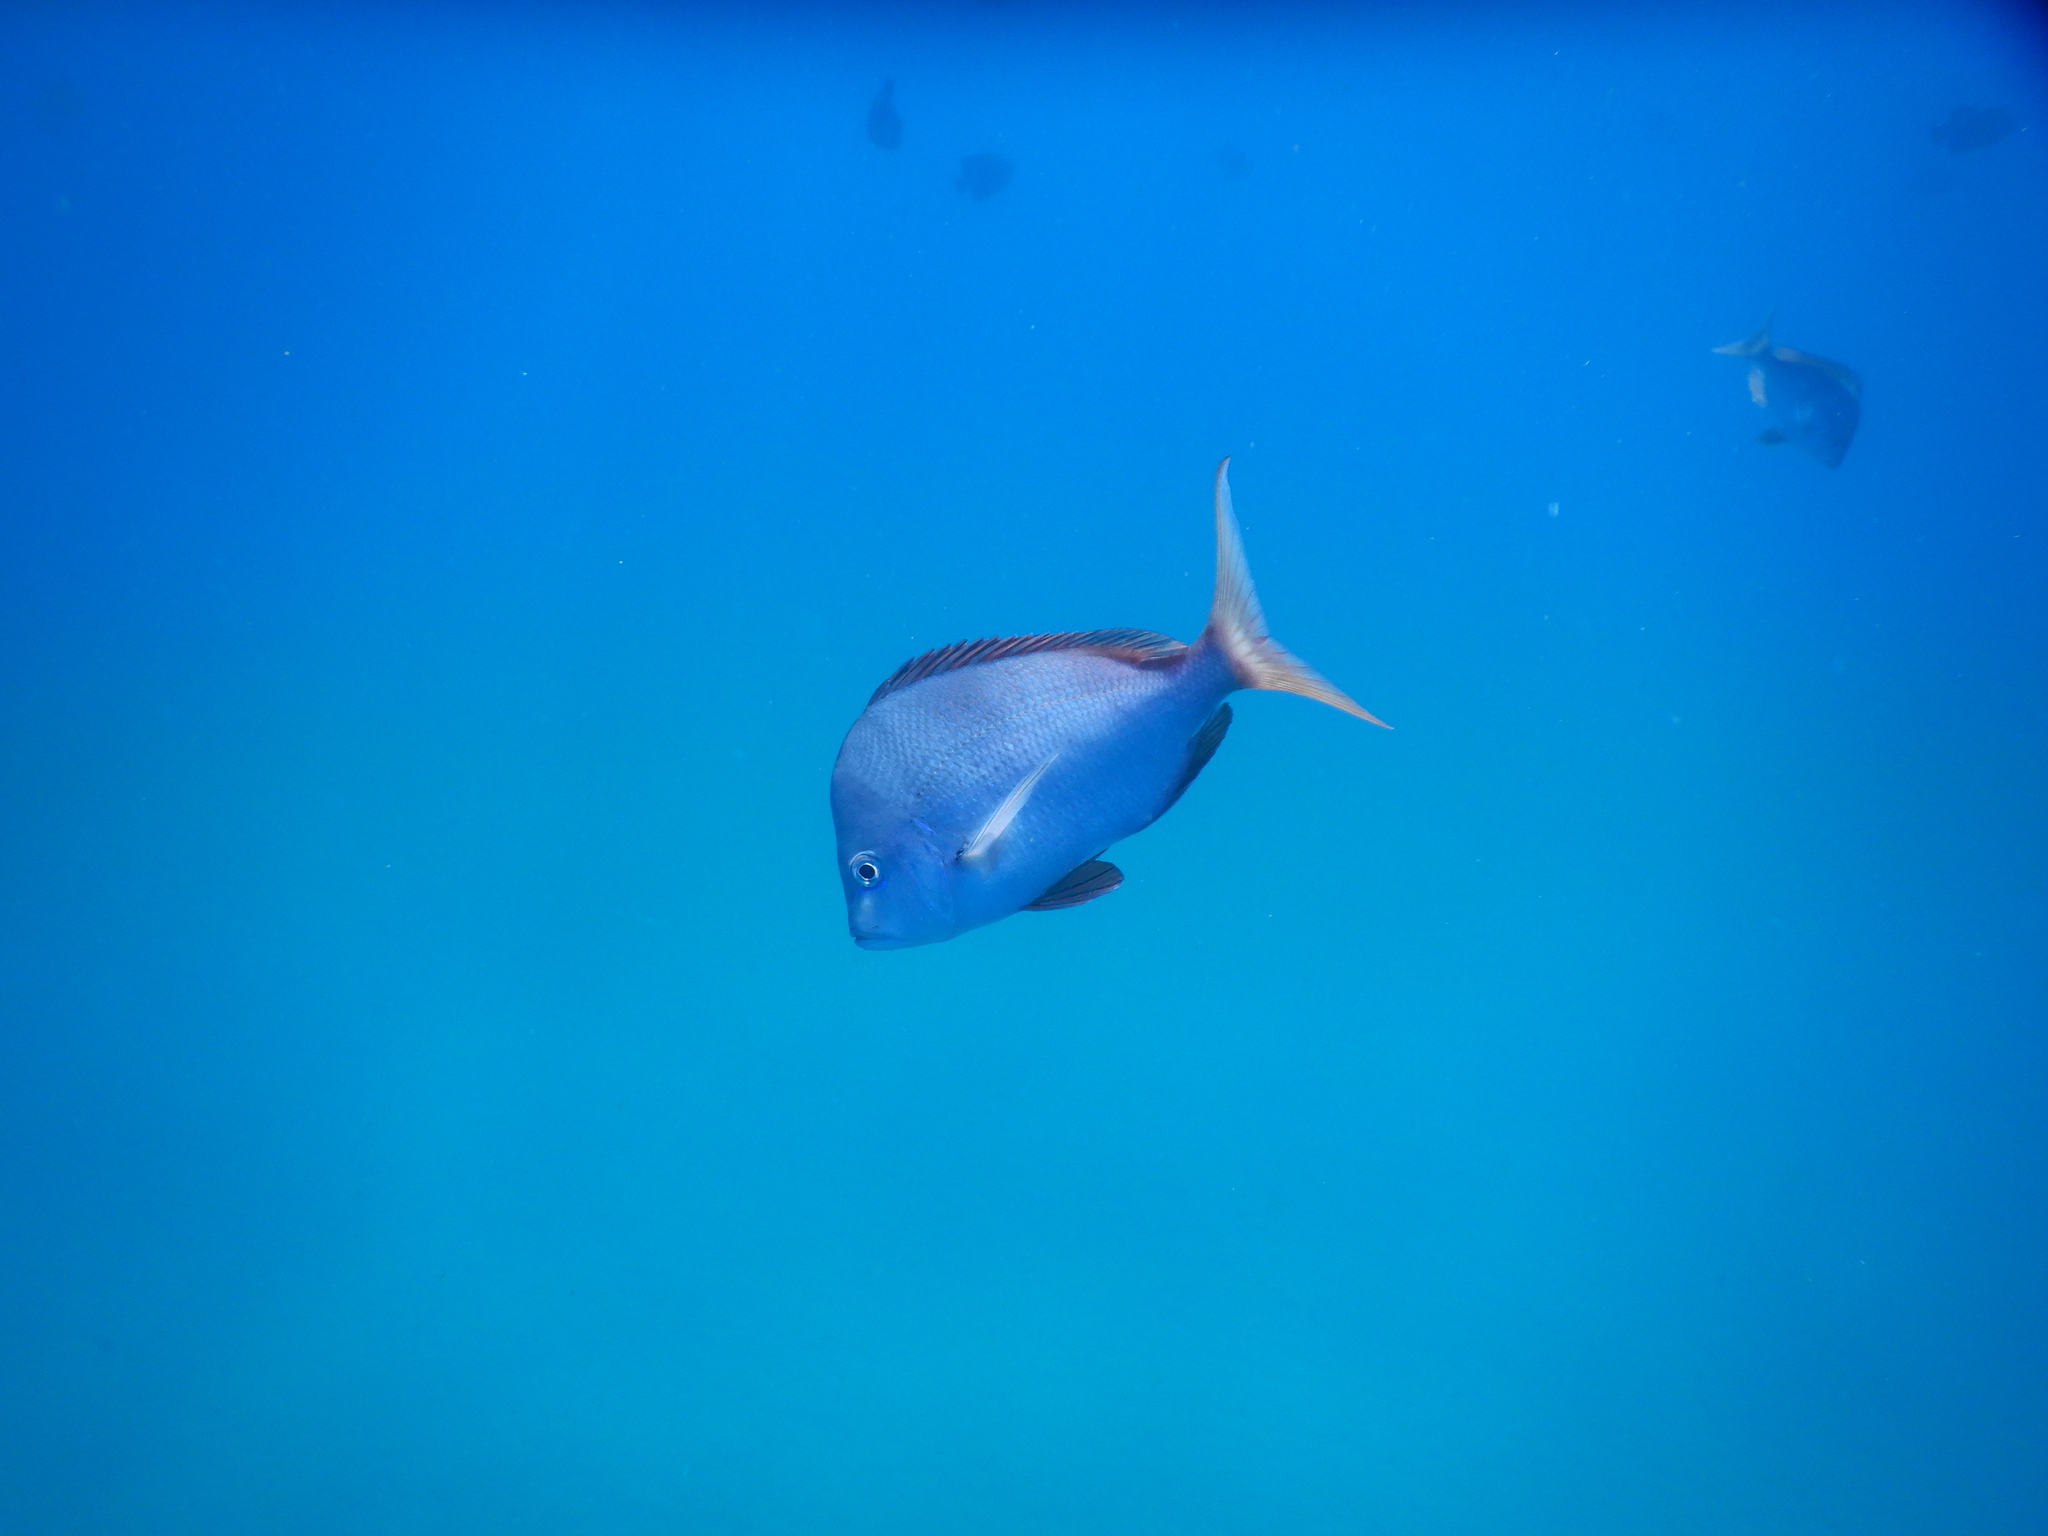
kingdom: Animalia
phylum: Chordata
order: Perciformes
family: Sparidae
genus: Chrysoblephus
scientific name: Chrysoblephus puniceus
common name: Slinger seabream
